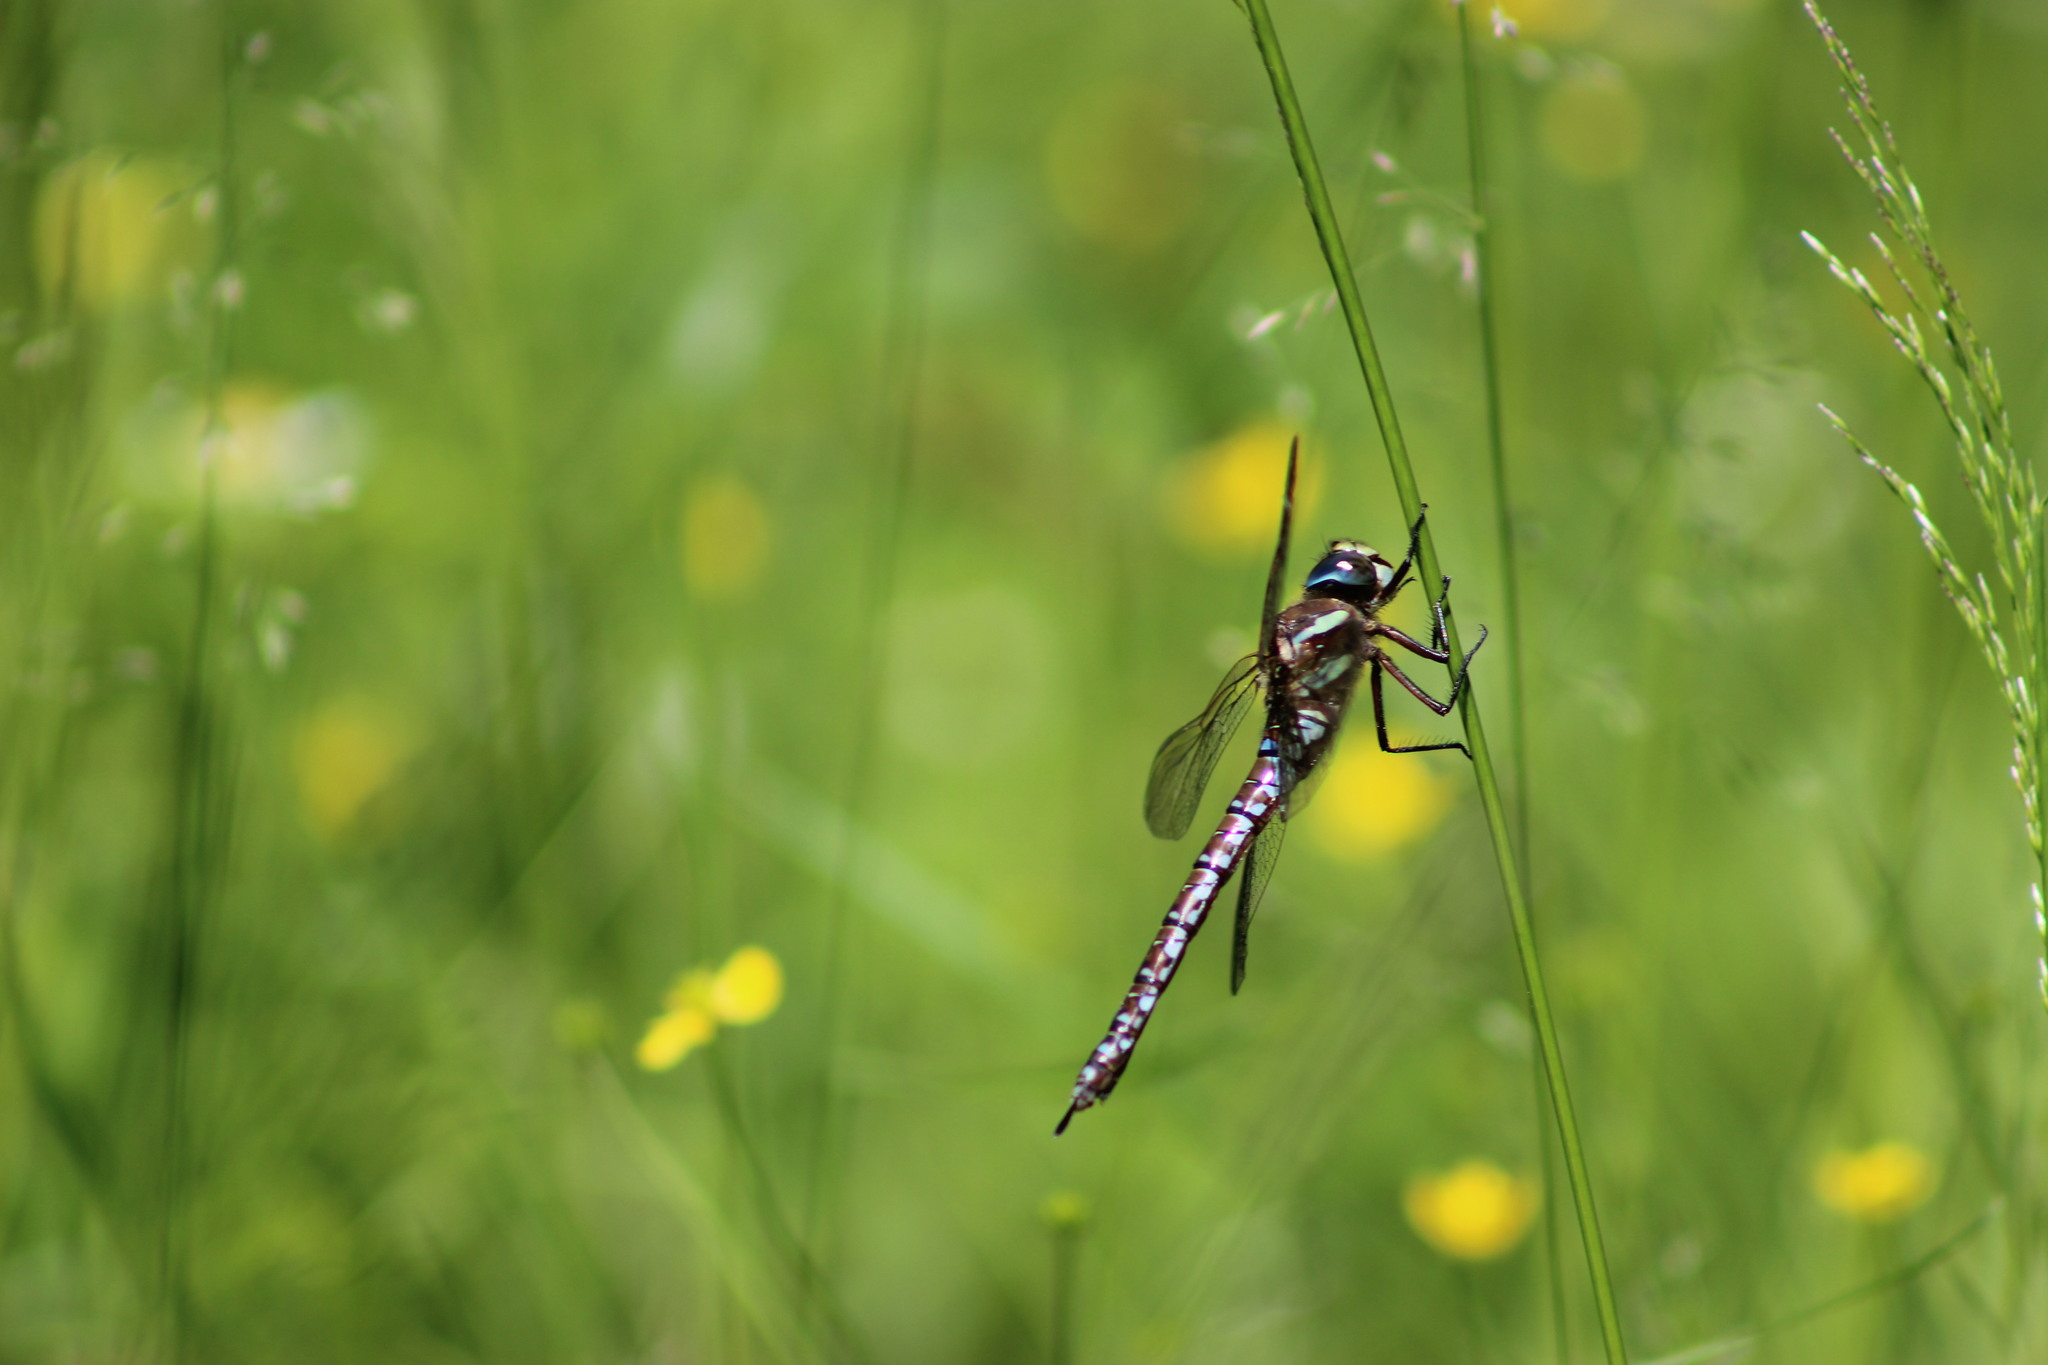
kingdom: Animalia
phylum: Arthropoda
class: Insecta
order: Odonata
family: Aeshnidae
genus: Aeshna
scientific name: Aeshna juncea
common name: Moorland hawker
